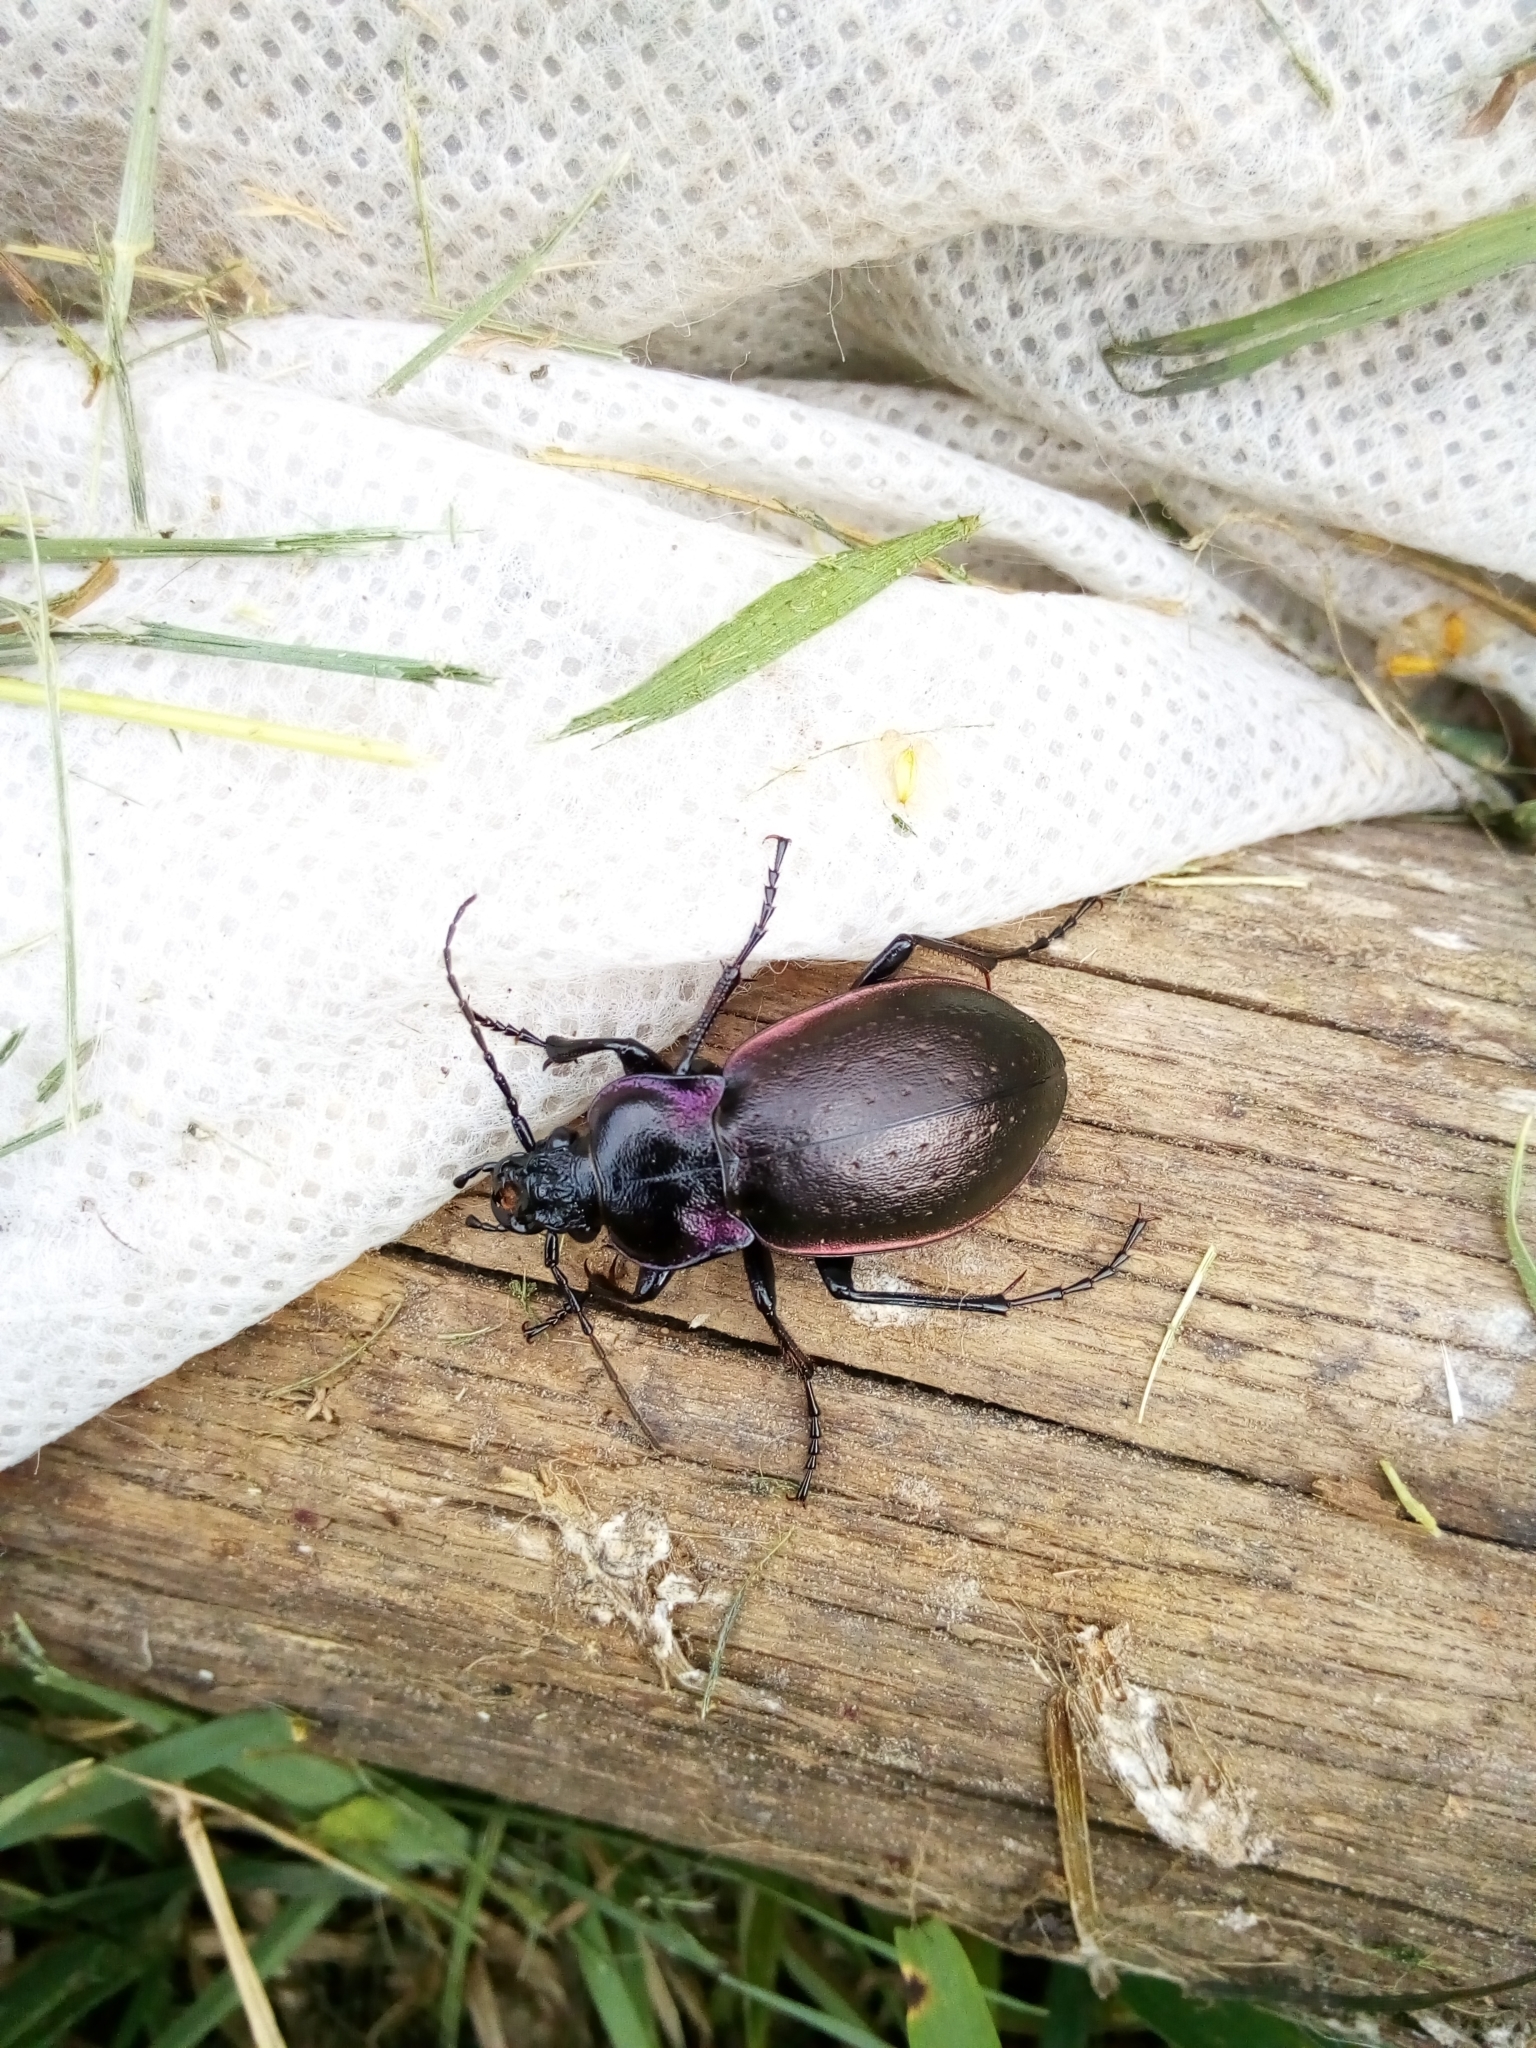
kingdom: Animalia
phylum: Arthropoda
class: Insecta
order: Coleoptera
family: Carabidae
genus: Carabus
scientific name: Carabus nemoralis
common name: European ground beetle
